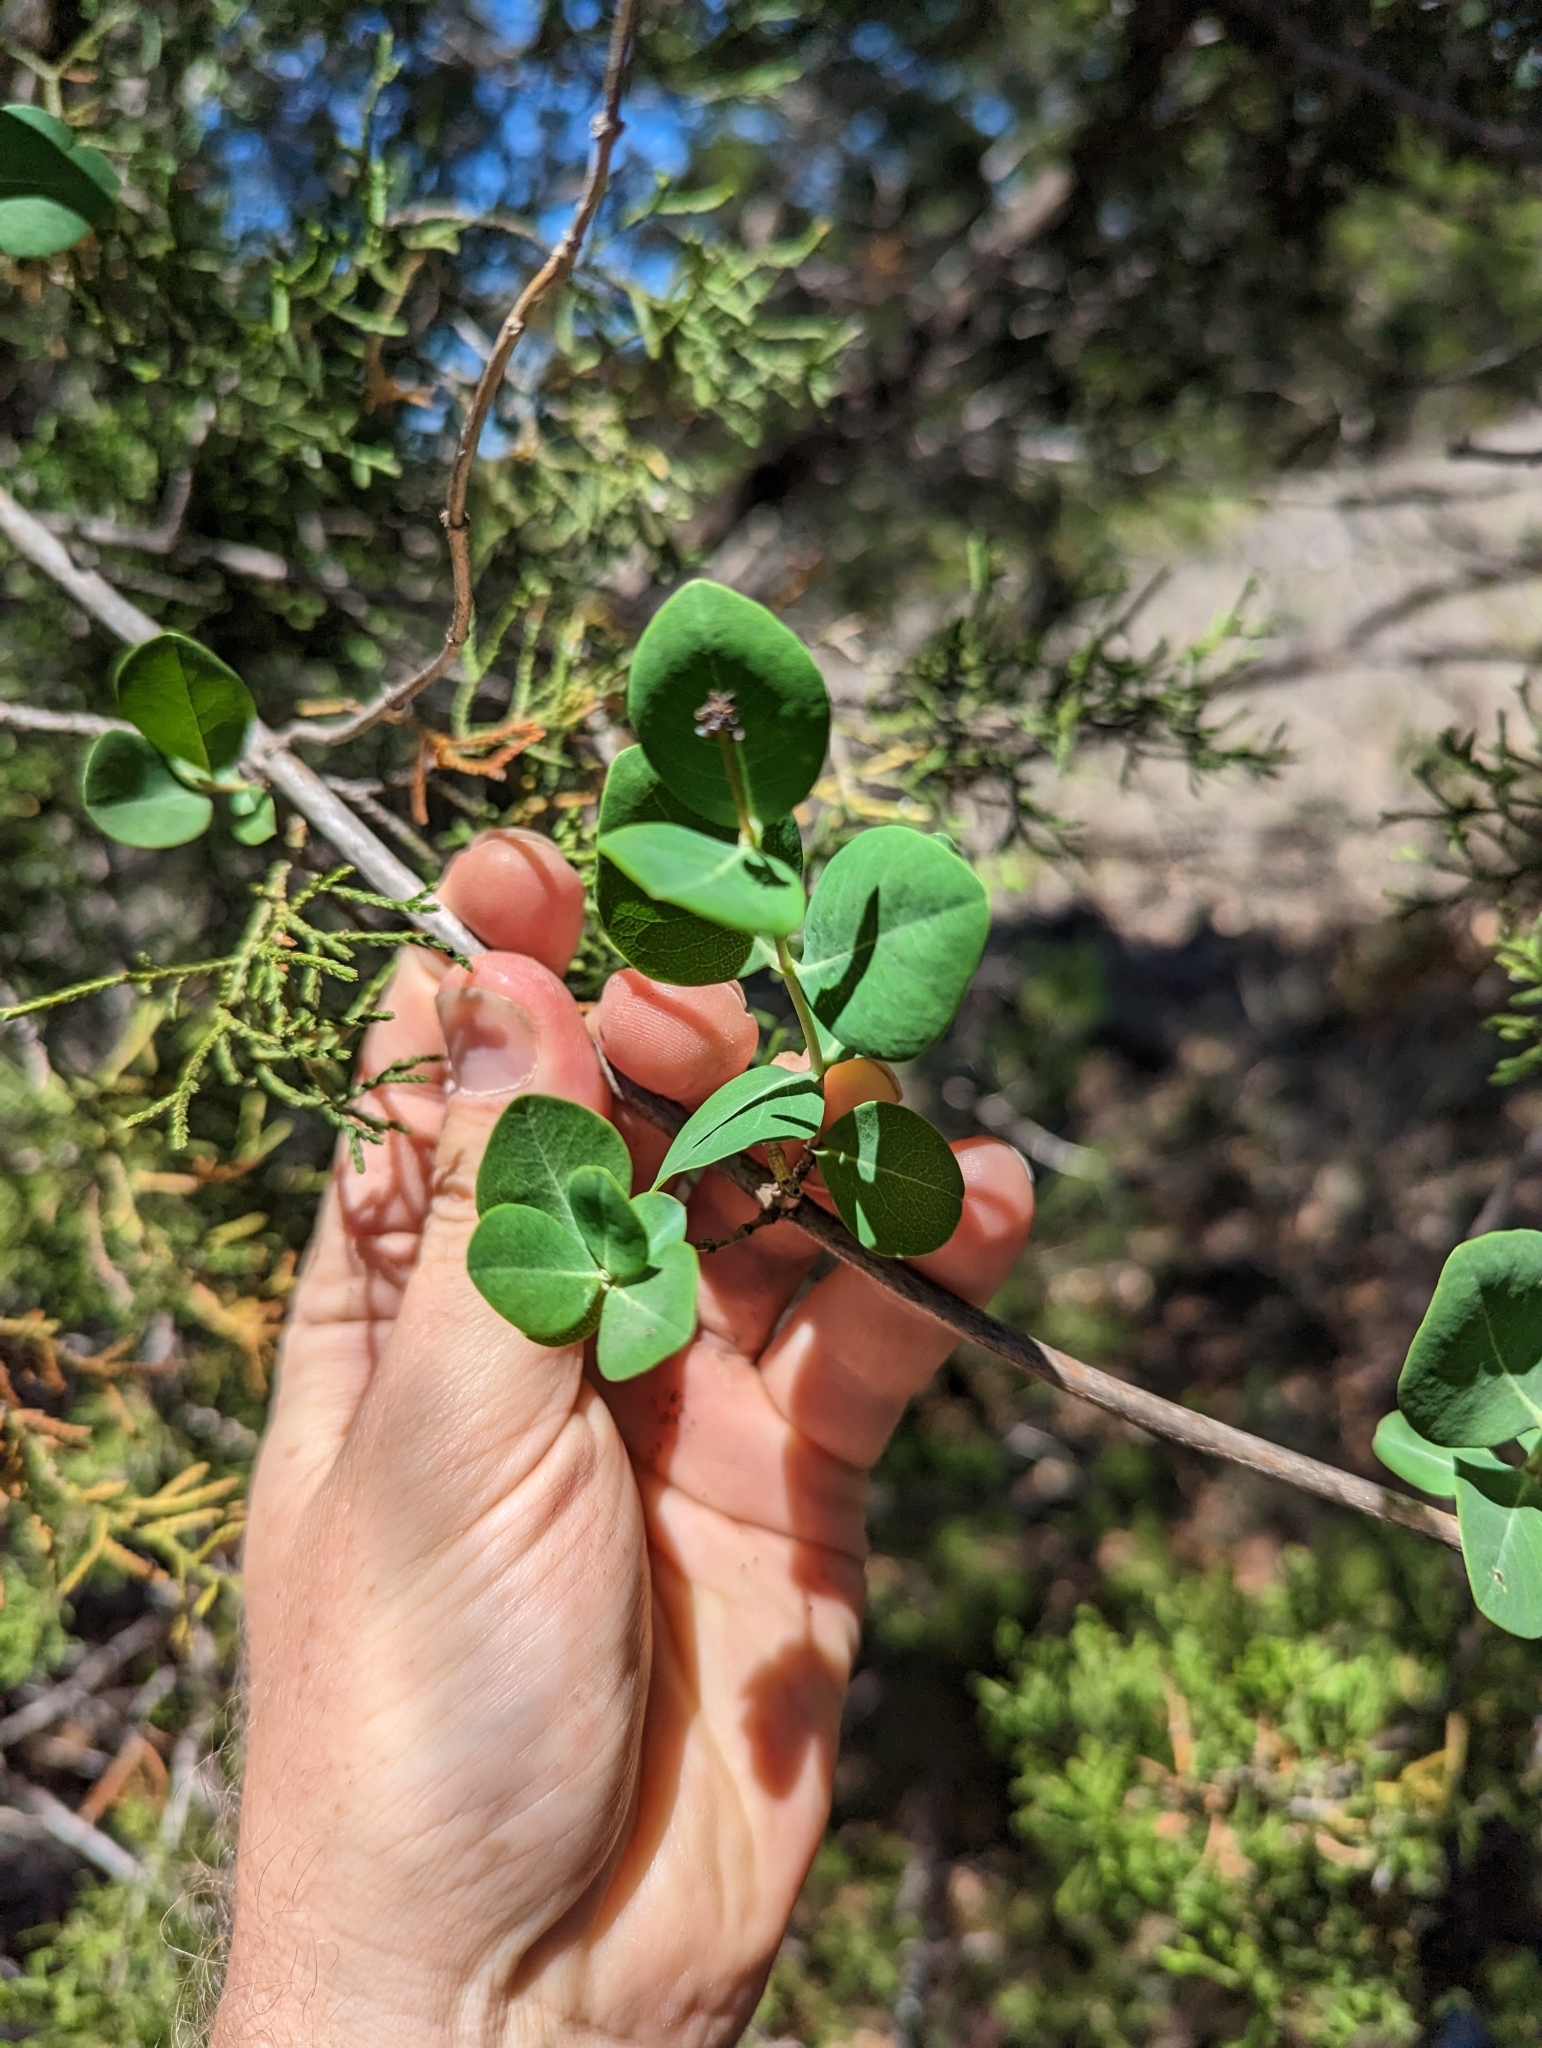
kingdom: Plantae
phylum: Tracheophyta
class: Magnoliopsida
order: Dipsacales
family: Caprifoliaceae
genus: Lonicera
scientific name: Lonicera albiflora
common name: White honeysuckle
